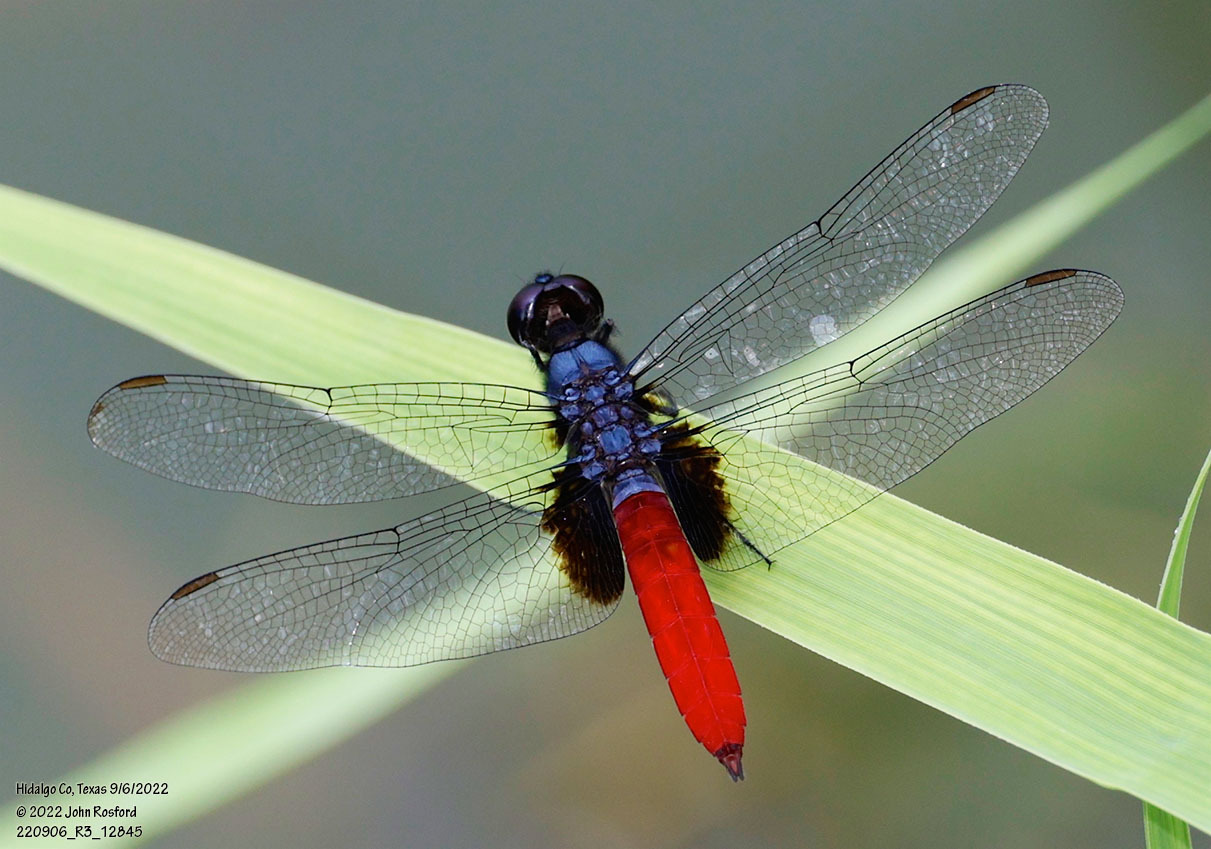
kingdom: Animalia
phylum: Arthropoda
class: Insecta
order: Odonata
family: Libellulidae
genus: Planiplax
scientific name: Planiplax sanguiniventris
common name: Mexican scarlet-tail
